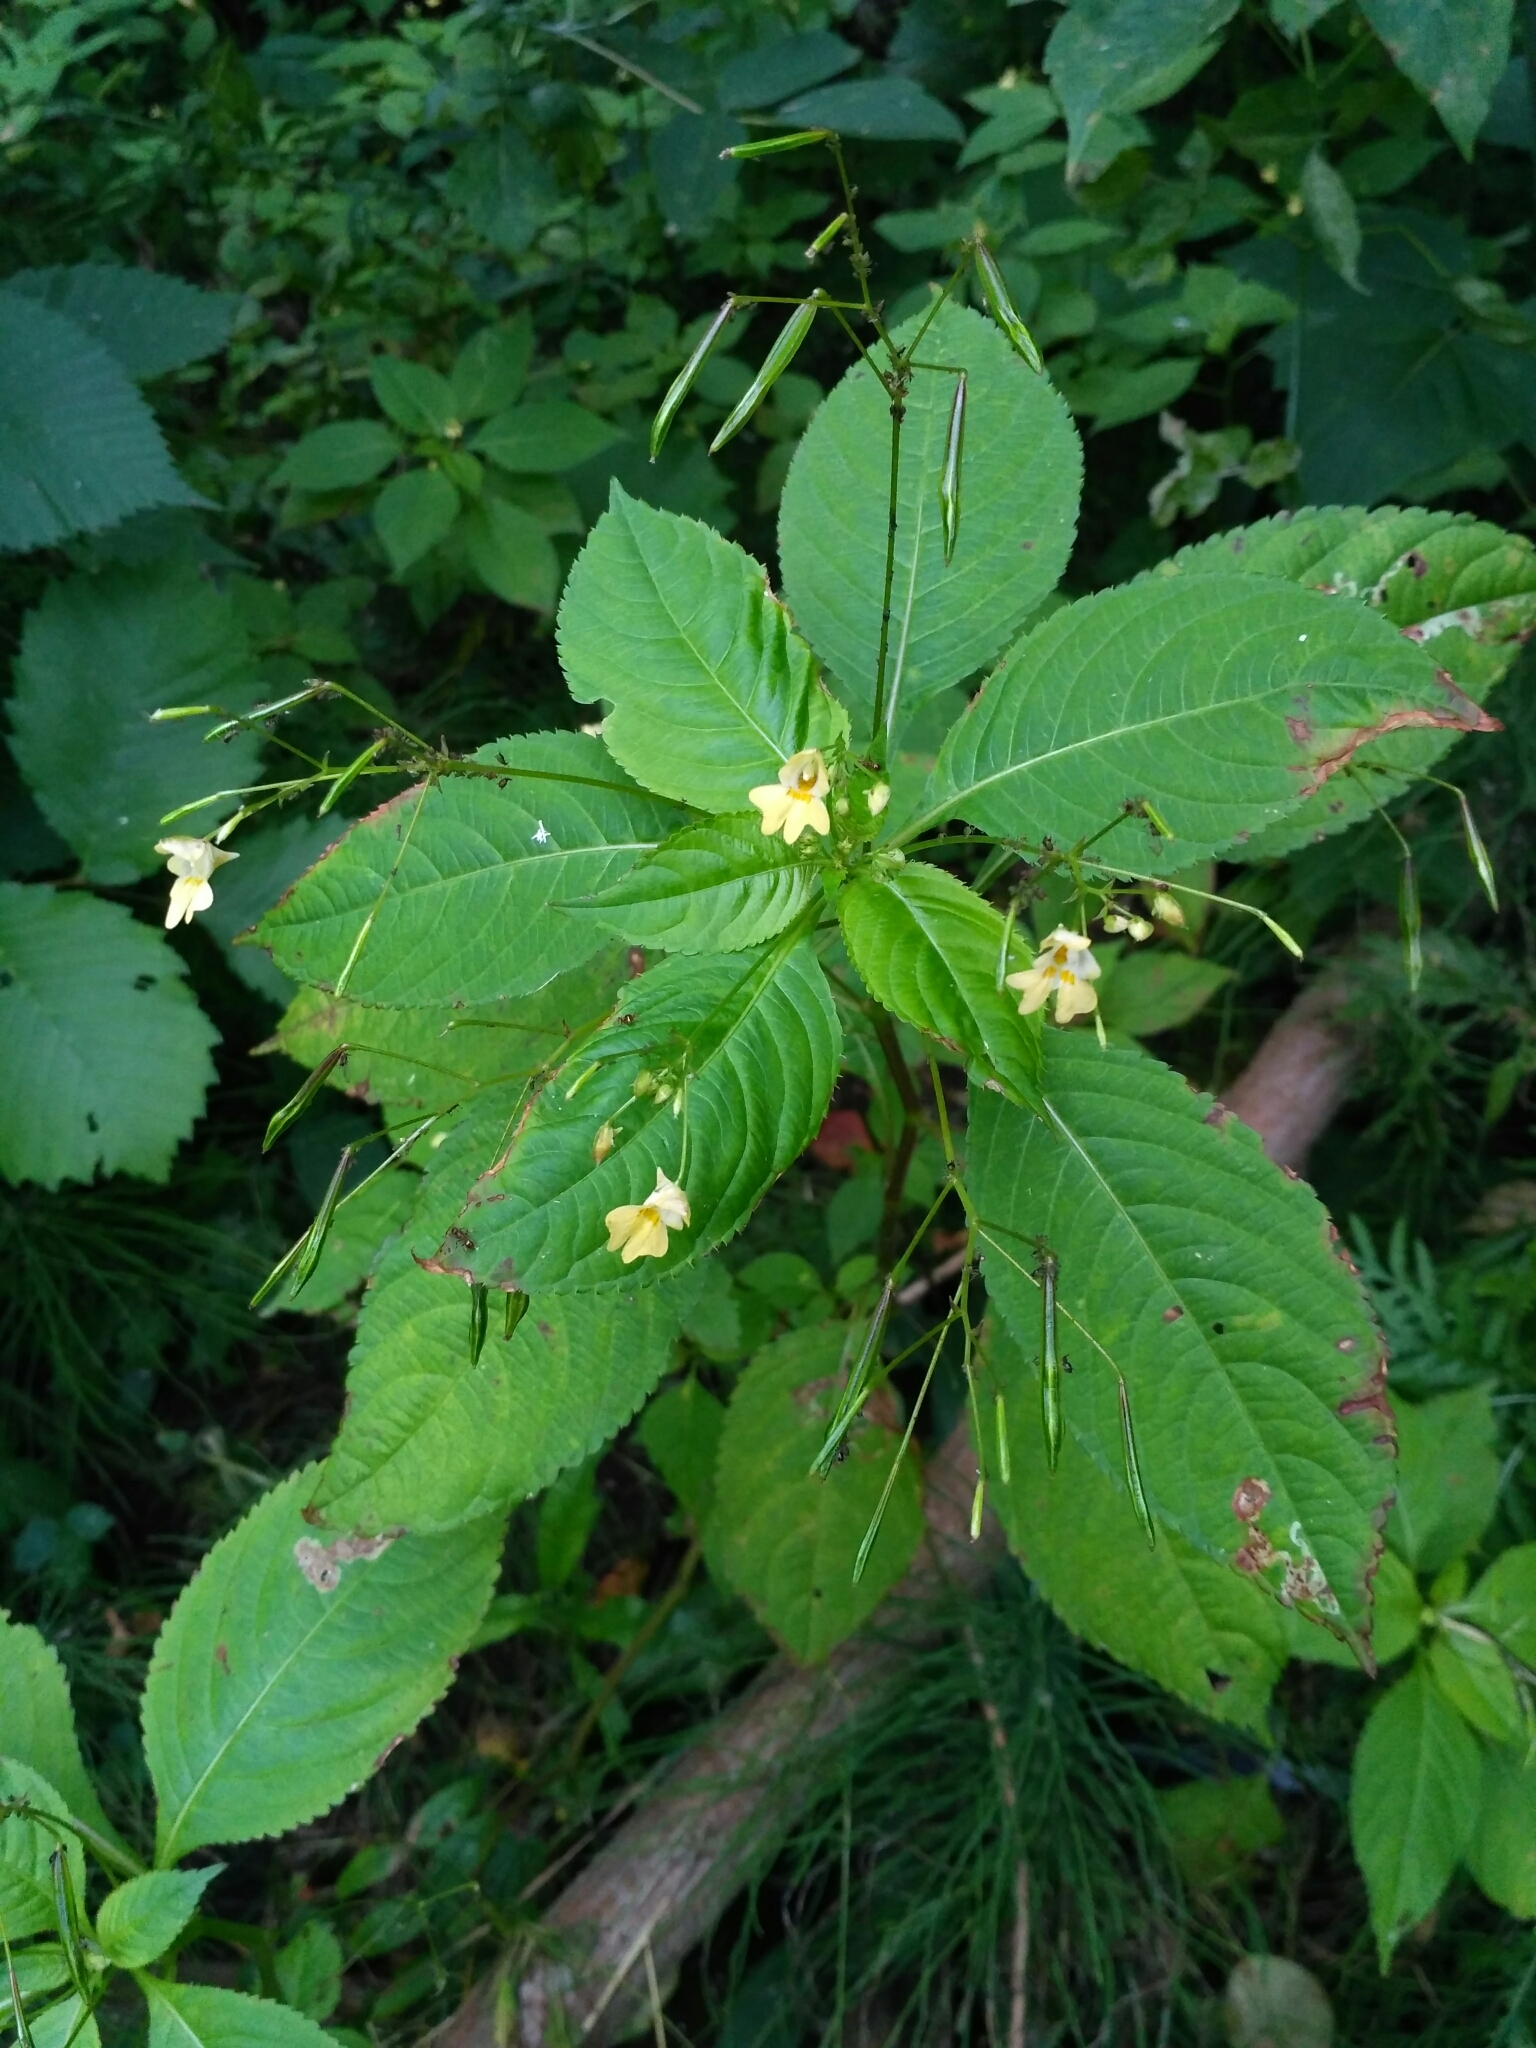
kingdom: Plantae
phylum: Tracheophyta
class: Magnoliopsida
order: Ericales
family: Balsaminaceae
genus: Impatiens
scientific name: Impatiens parviflora
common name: Small balsam
